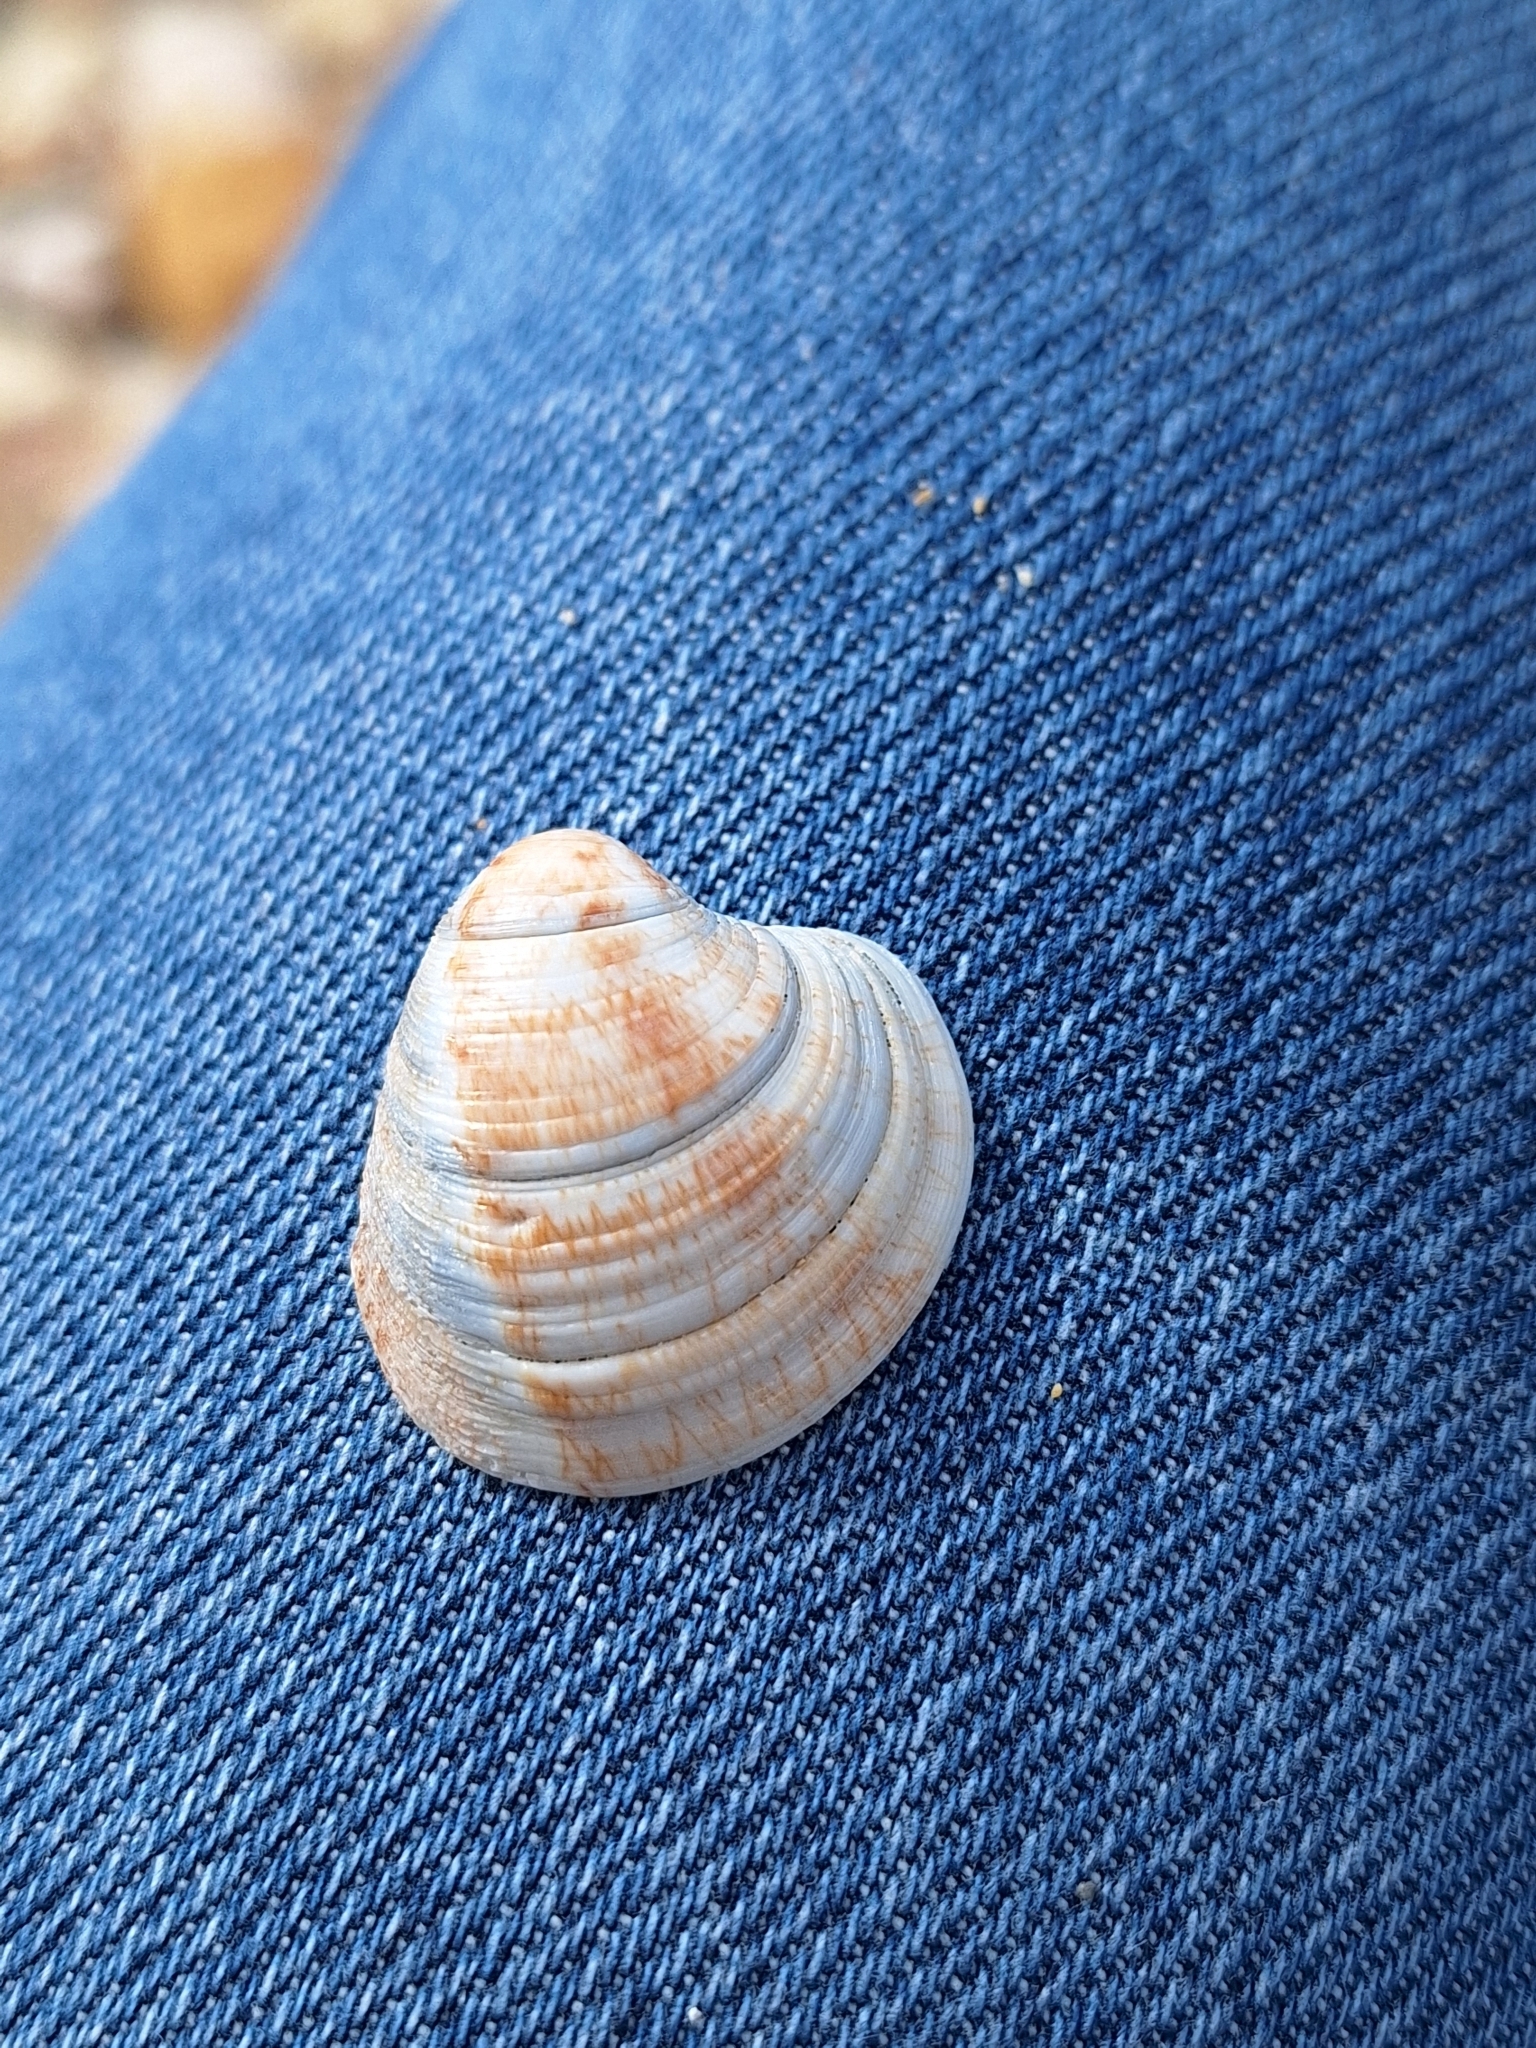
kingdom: Animalia
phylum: Mollusca
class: Bivalvia
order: Venerida
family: Veneridae
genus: Chamelea
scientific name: Chamelea gallina
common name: Chicken venus
